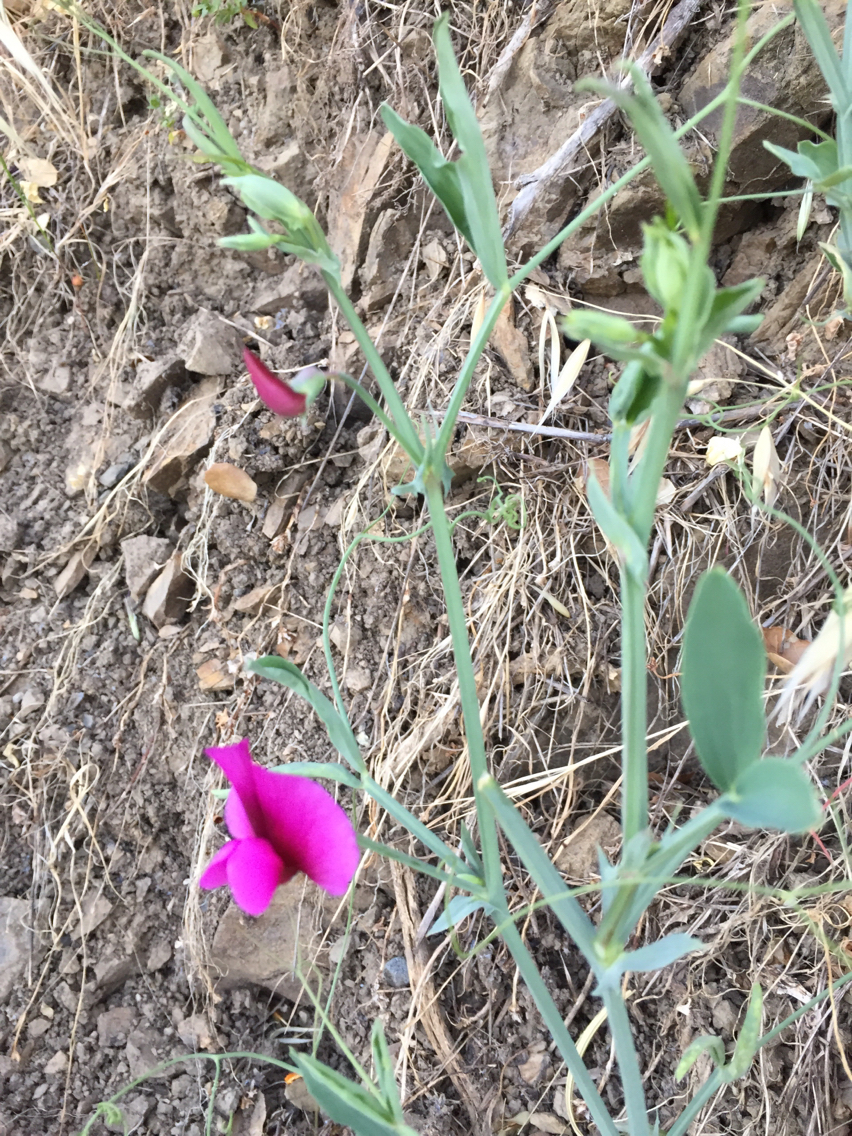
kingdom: Plantae
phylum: Tracheophyta
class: Magnoliopsida
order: Fabales
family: Fabaceae
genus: Lathyrus
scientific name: Lathyrus tingitanus
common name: Tangier pea
